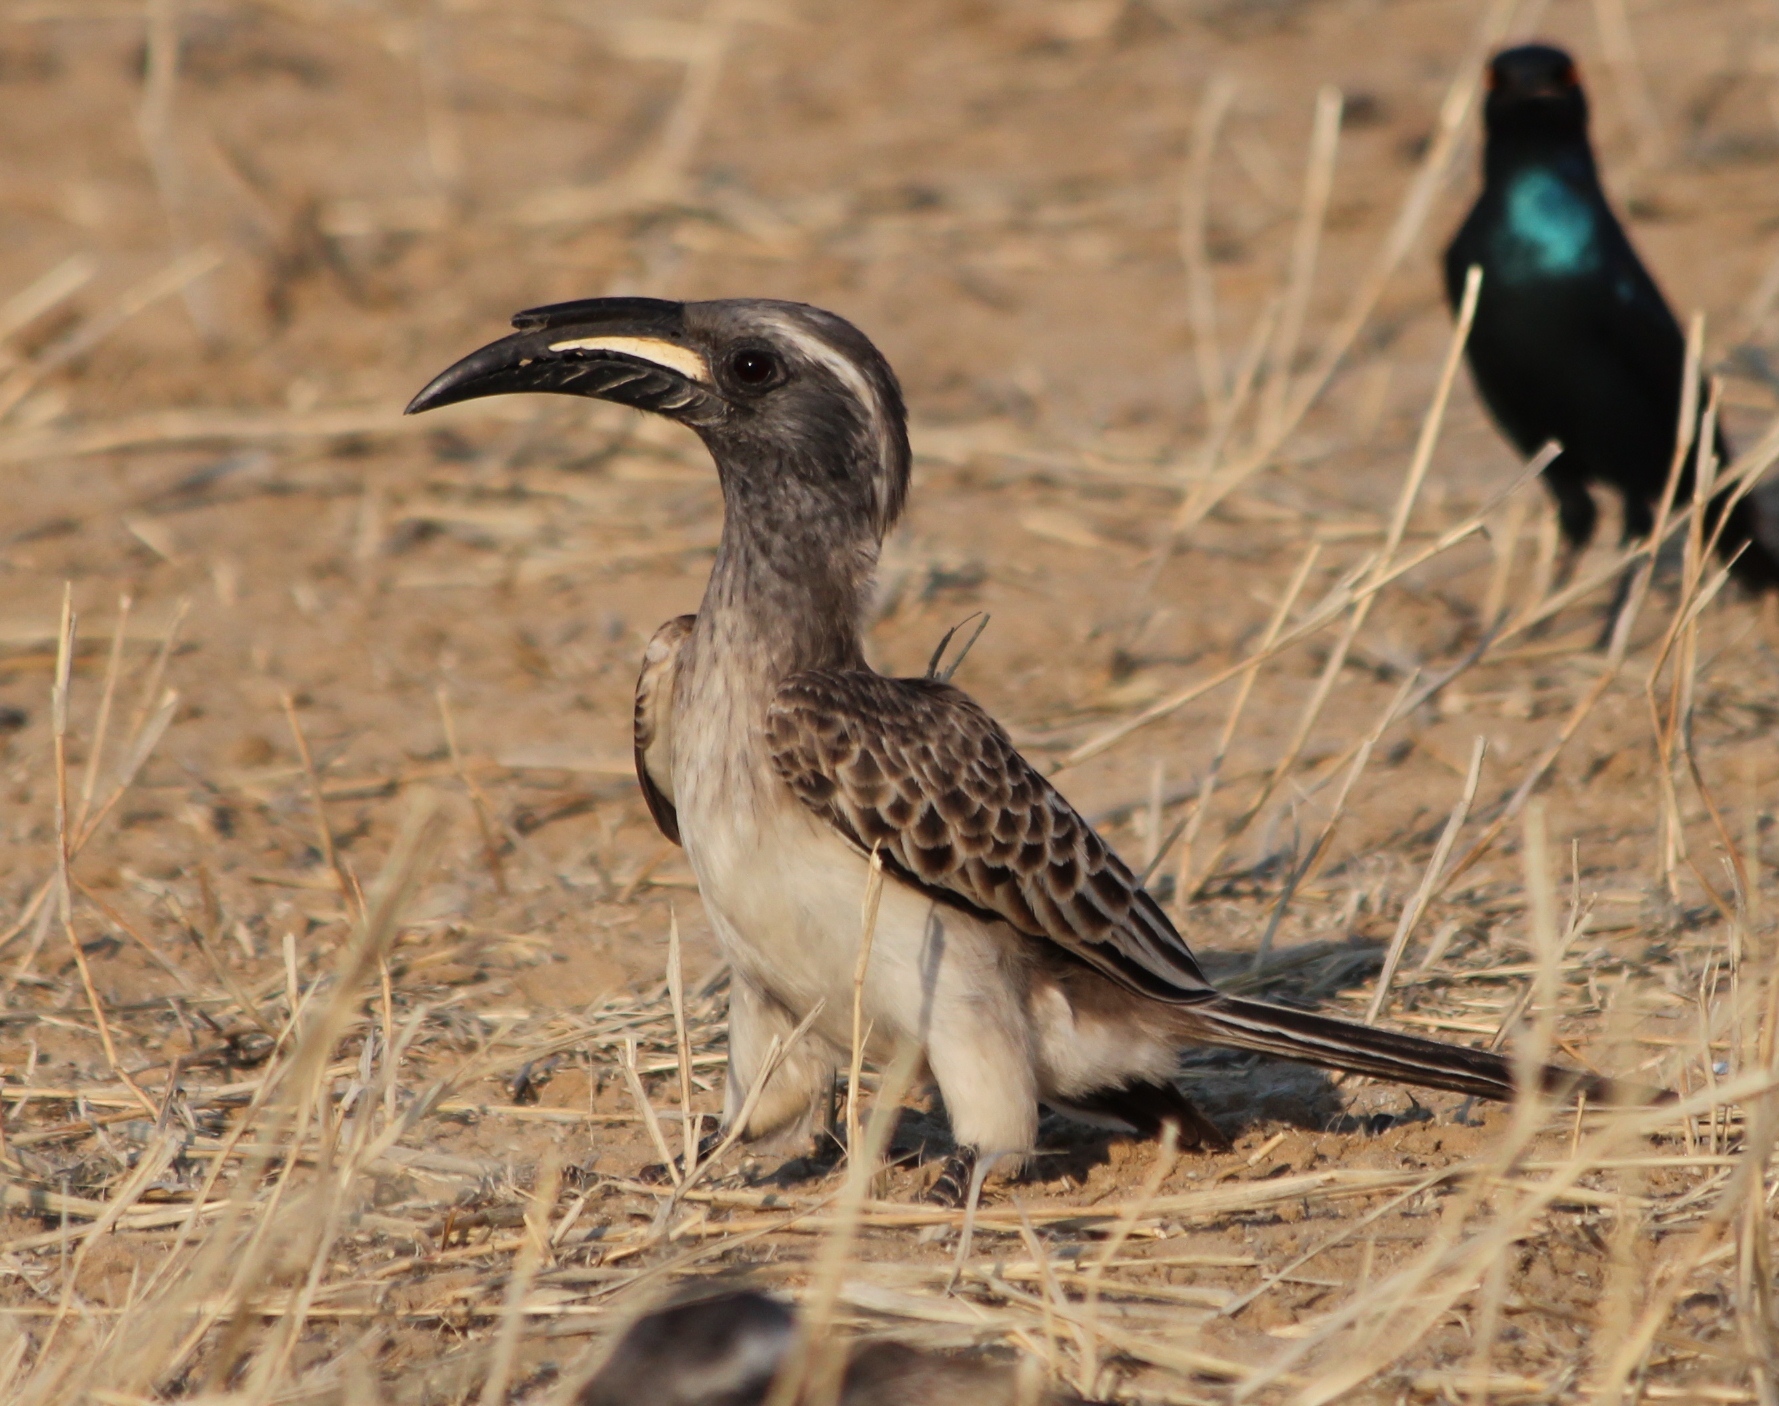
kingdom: Animalia
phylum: Chordata
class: Aves
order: Bucerotiformes
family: Bucerotidae
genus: Lophoceros
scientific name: Lophoceros nasutus
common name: African grey hornbill
